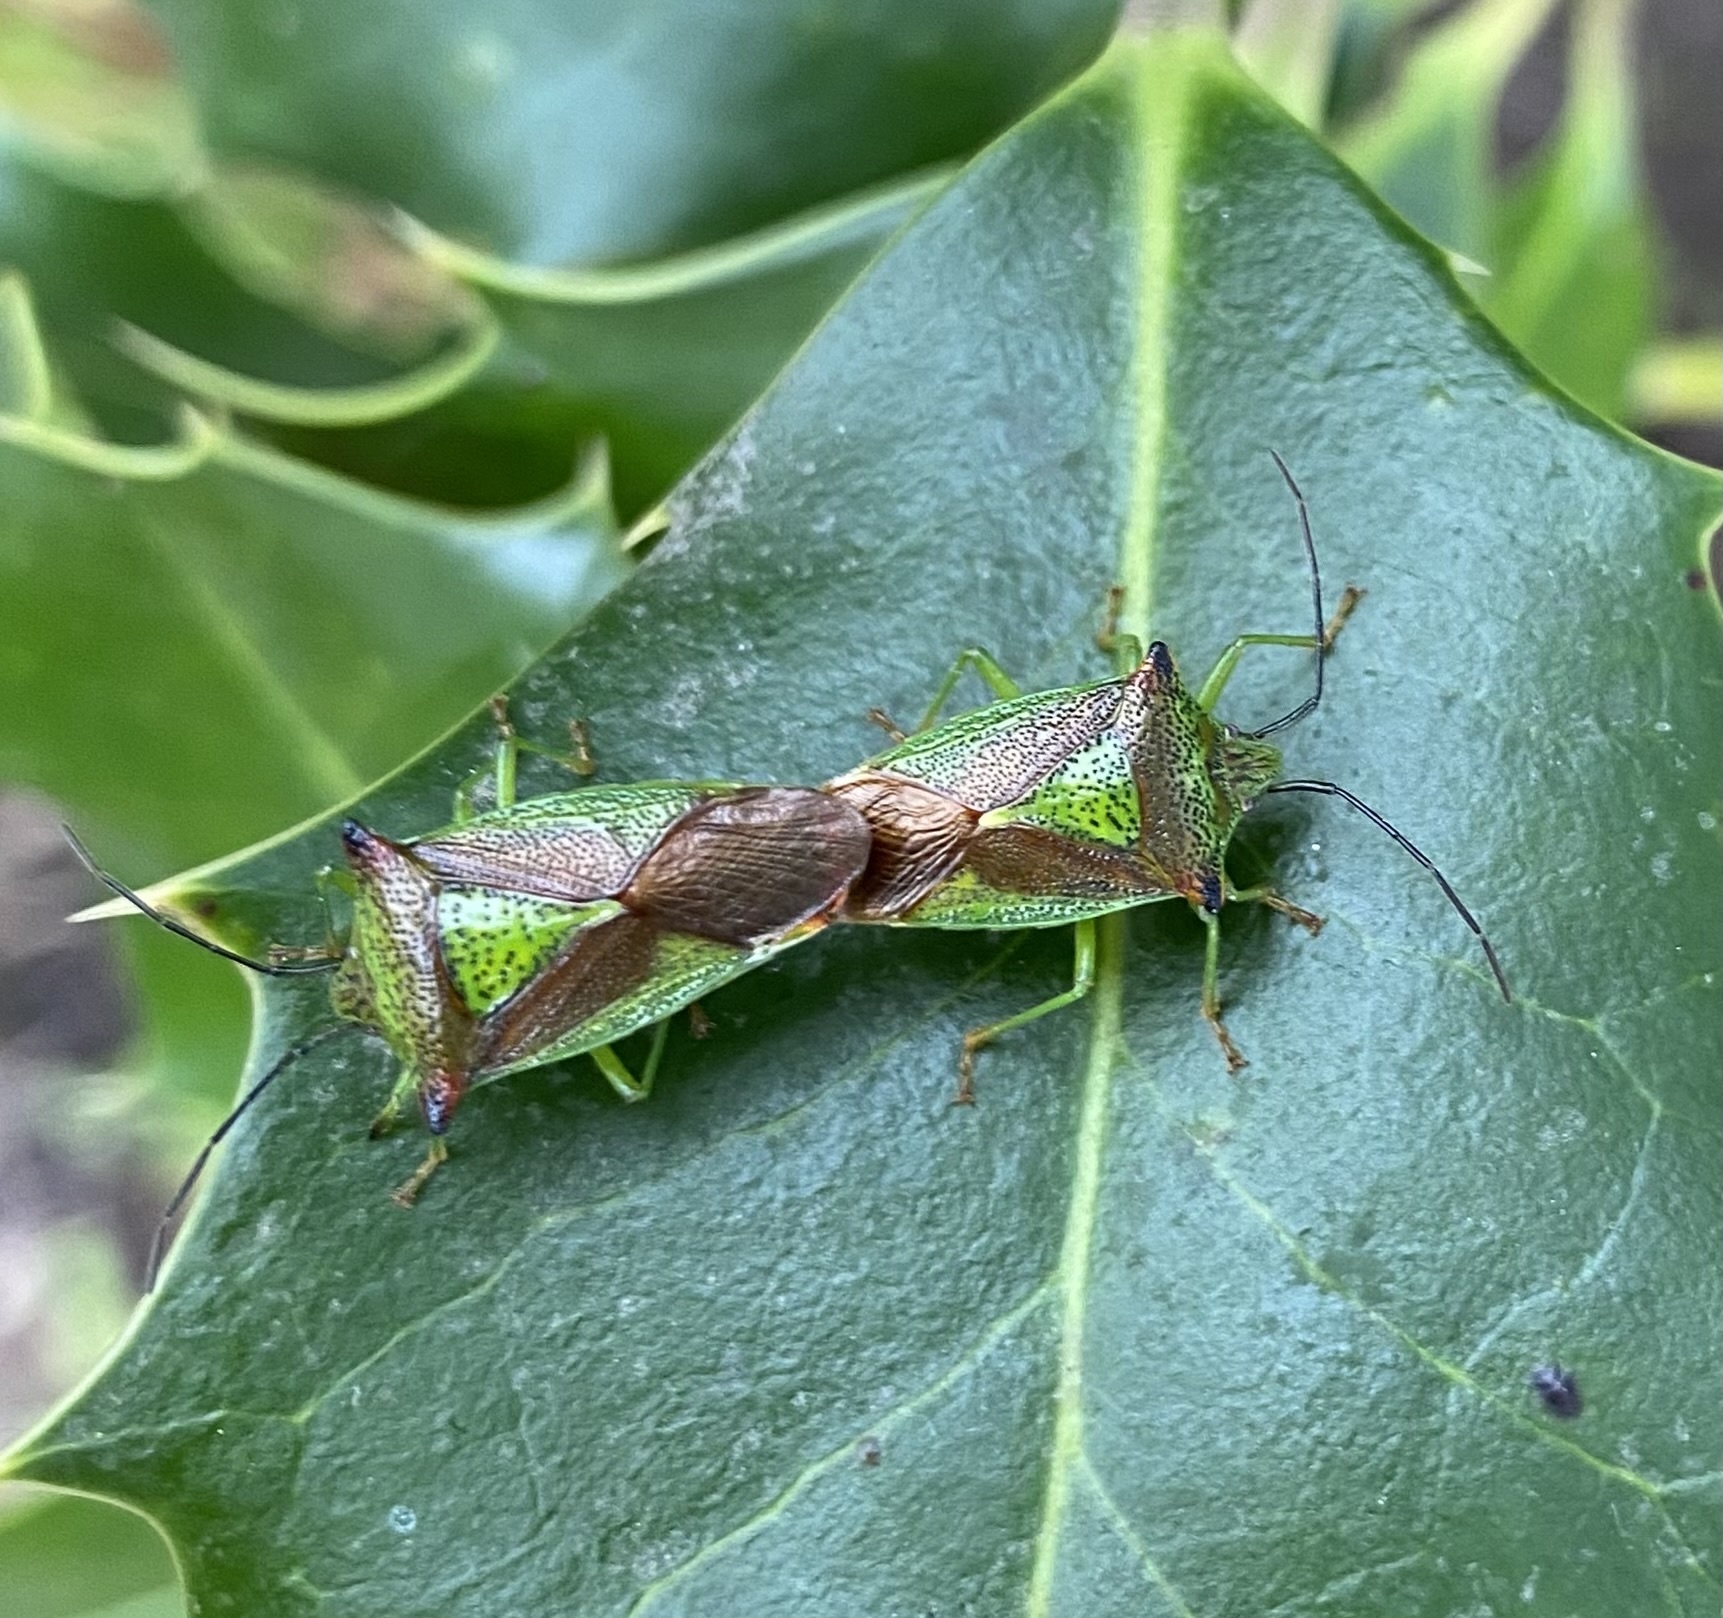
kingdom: Animalia
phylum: Arthropoda
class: Insecta
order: Hemiptera
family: Acanthosomatidae
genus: Acanthosoma
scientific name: Acanthosoma haemorrhoidale
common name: Hawthorn shieldbug
